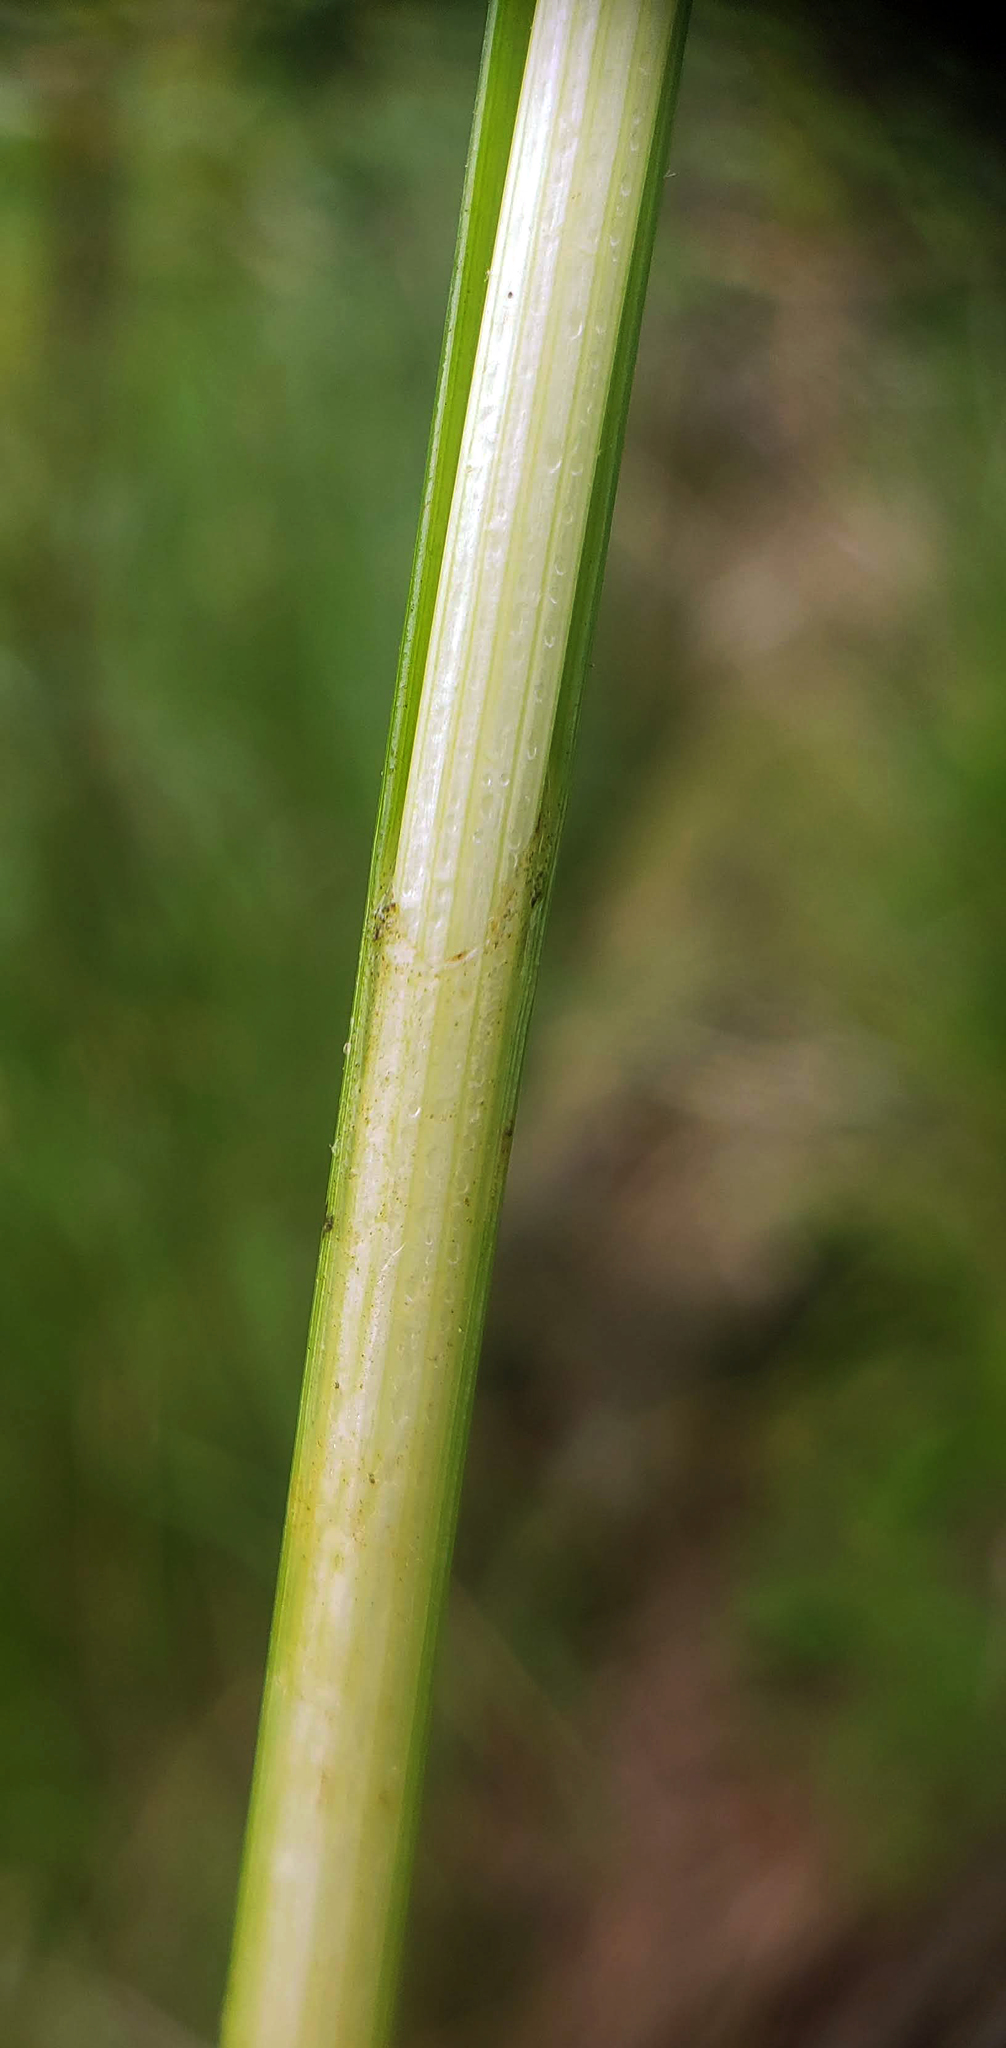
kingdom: Plantae
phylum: Tracheophyta
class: Liliopsida
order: Poales
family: Cyperaceae
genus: Carex
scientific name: Carex utriculata
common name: Beaked sedge
